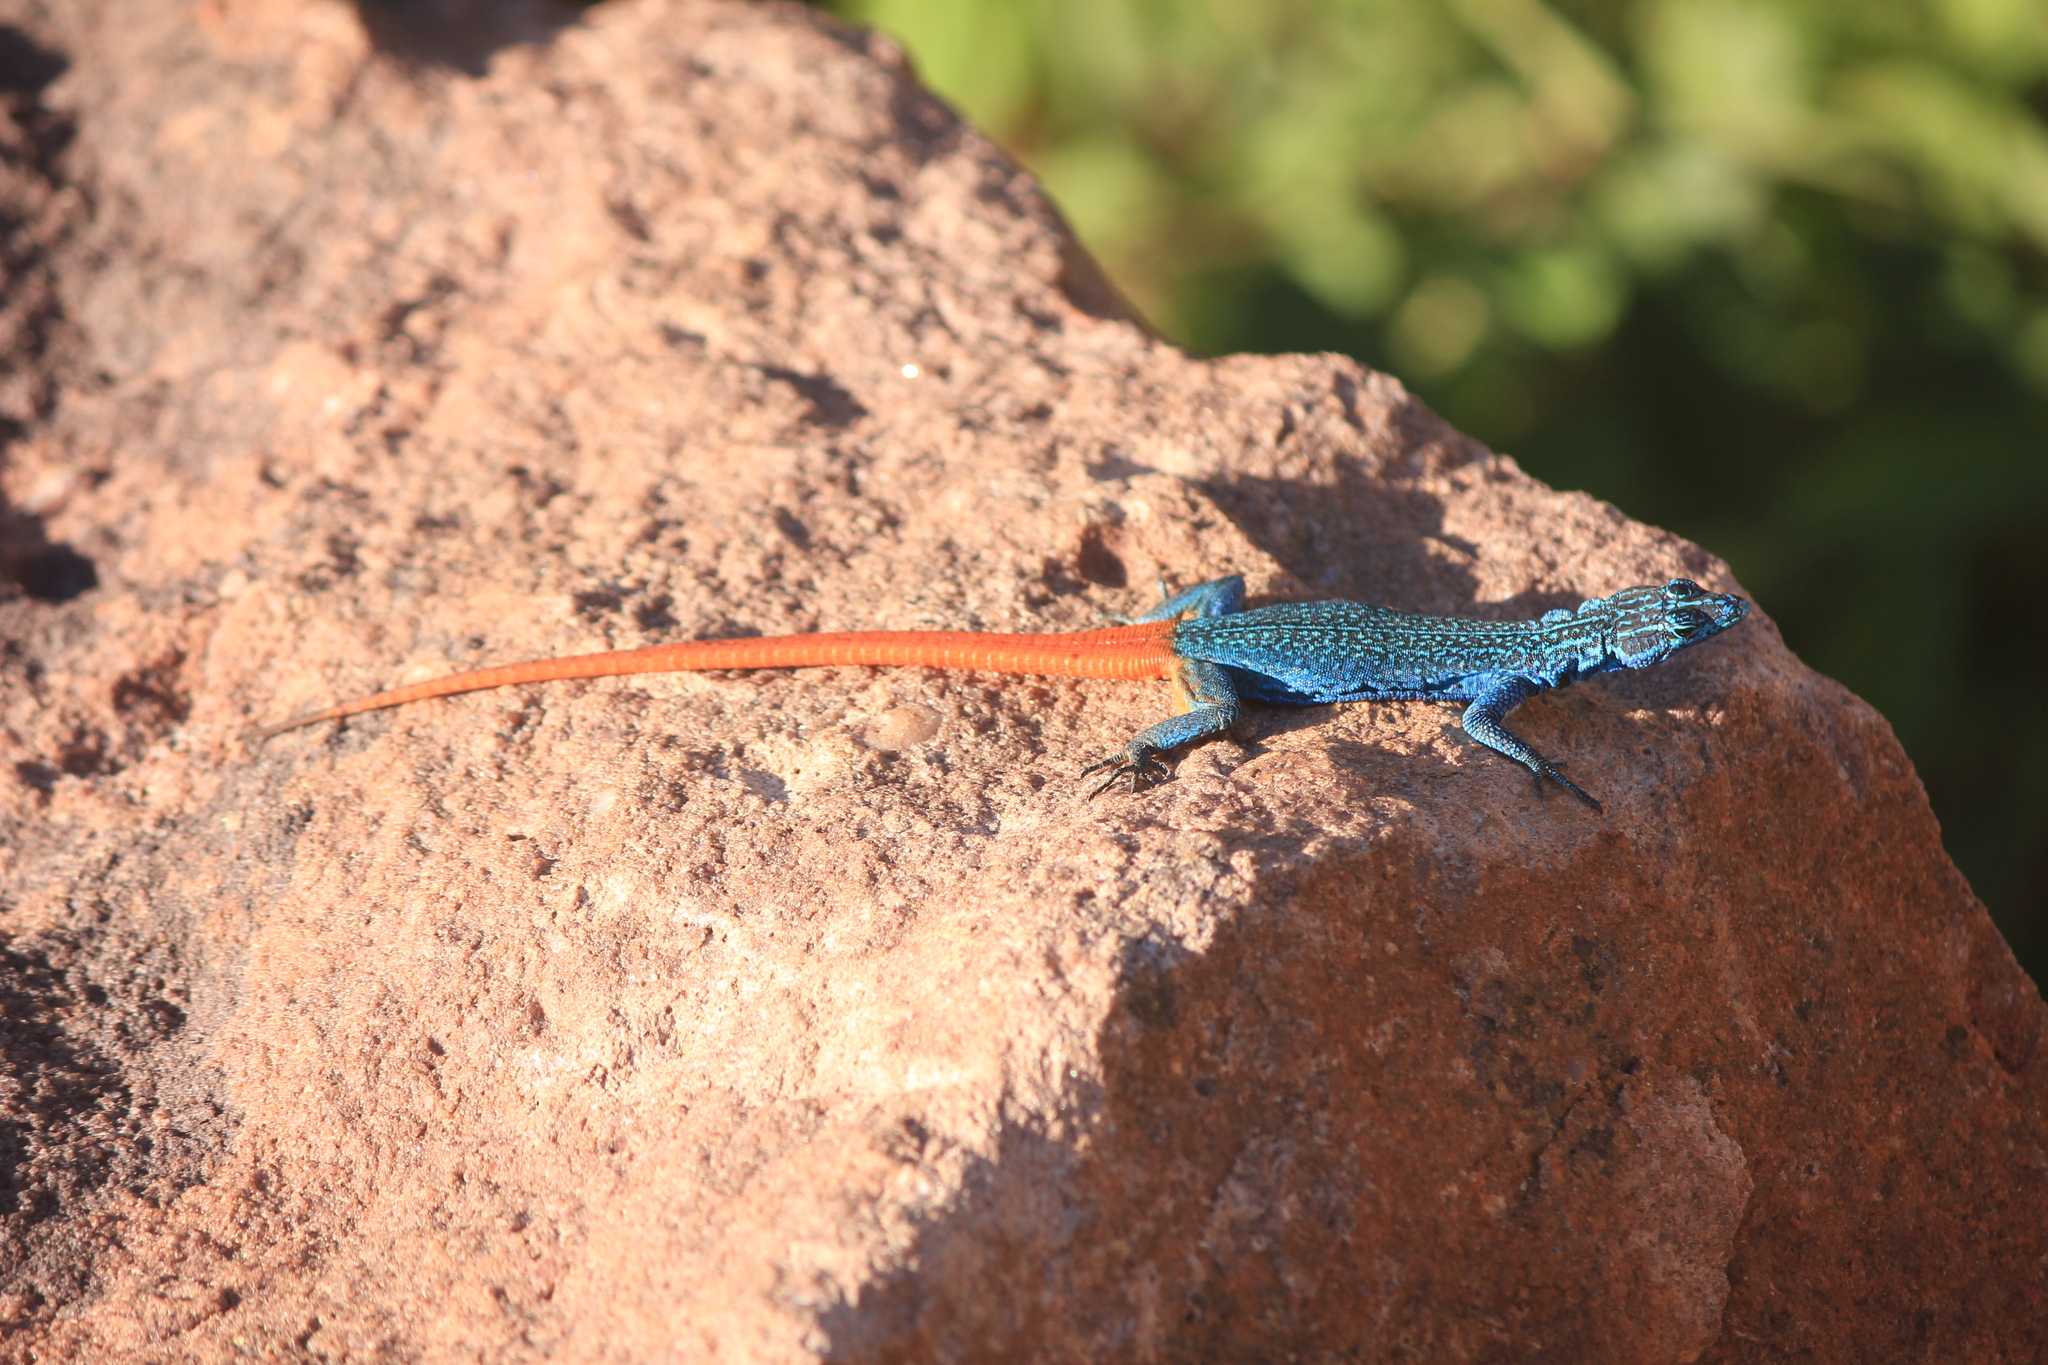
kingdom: Animalia
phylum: Chordata
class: Squamata
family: Cordylidae
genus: Platysaurus
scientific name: Platysaurus relictus
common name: Soutpansberg flat lizard
